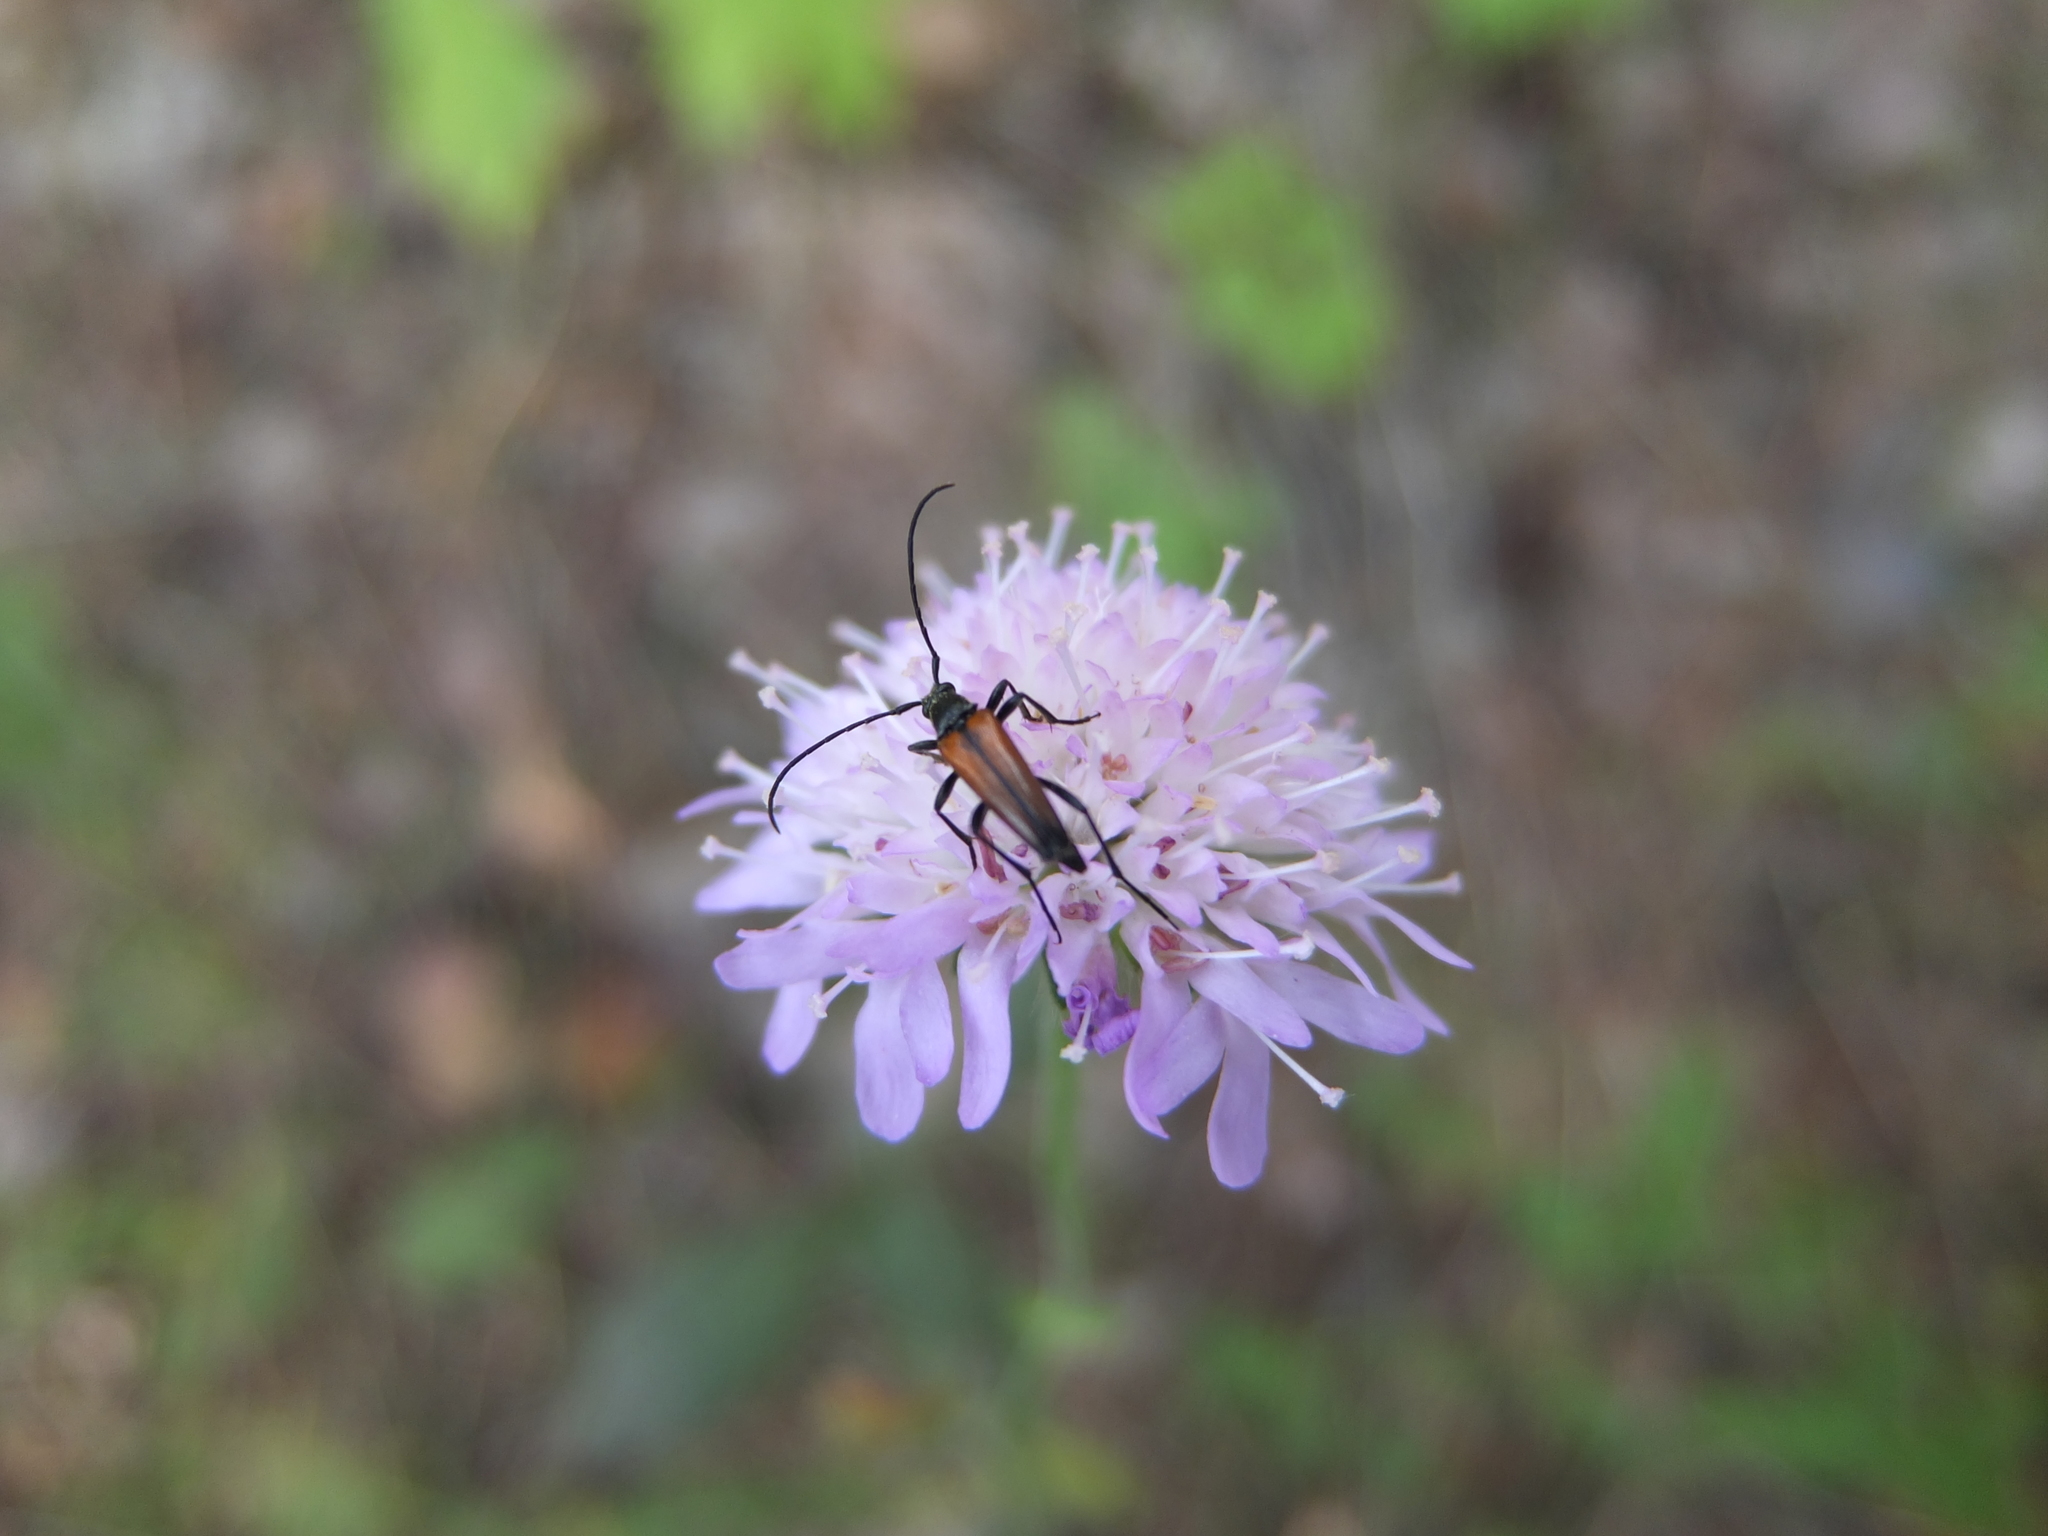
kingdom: Animalia
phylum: Arthropoda
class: Insecta
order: Coleoptera
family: Cerambycidae
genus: Stenurella
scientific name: Stenurella melanura
